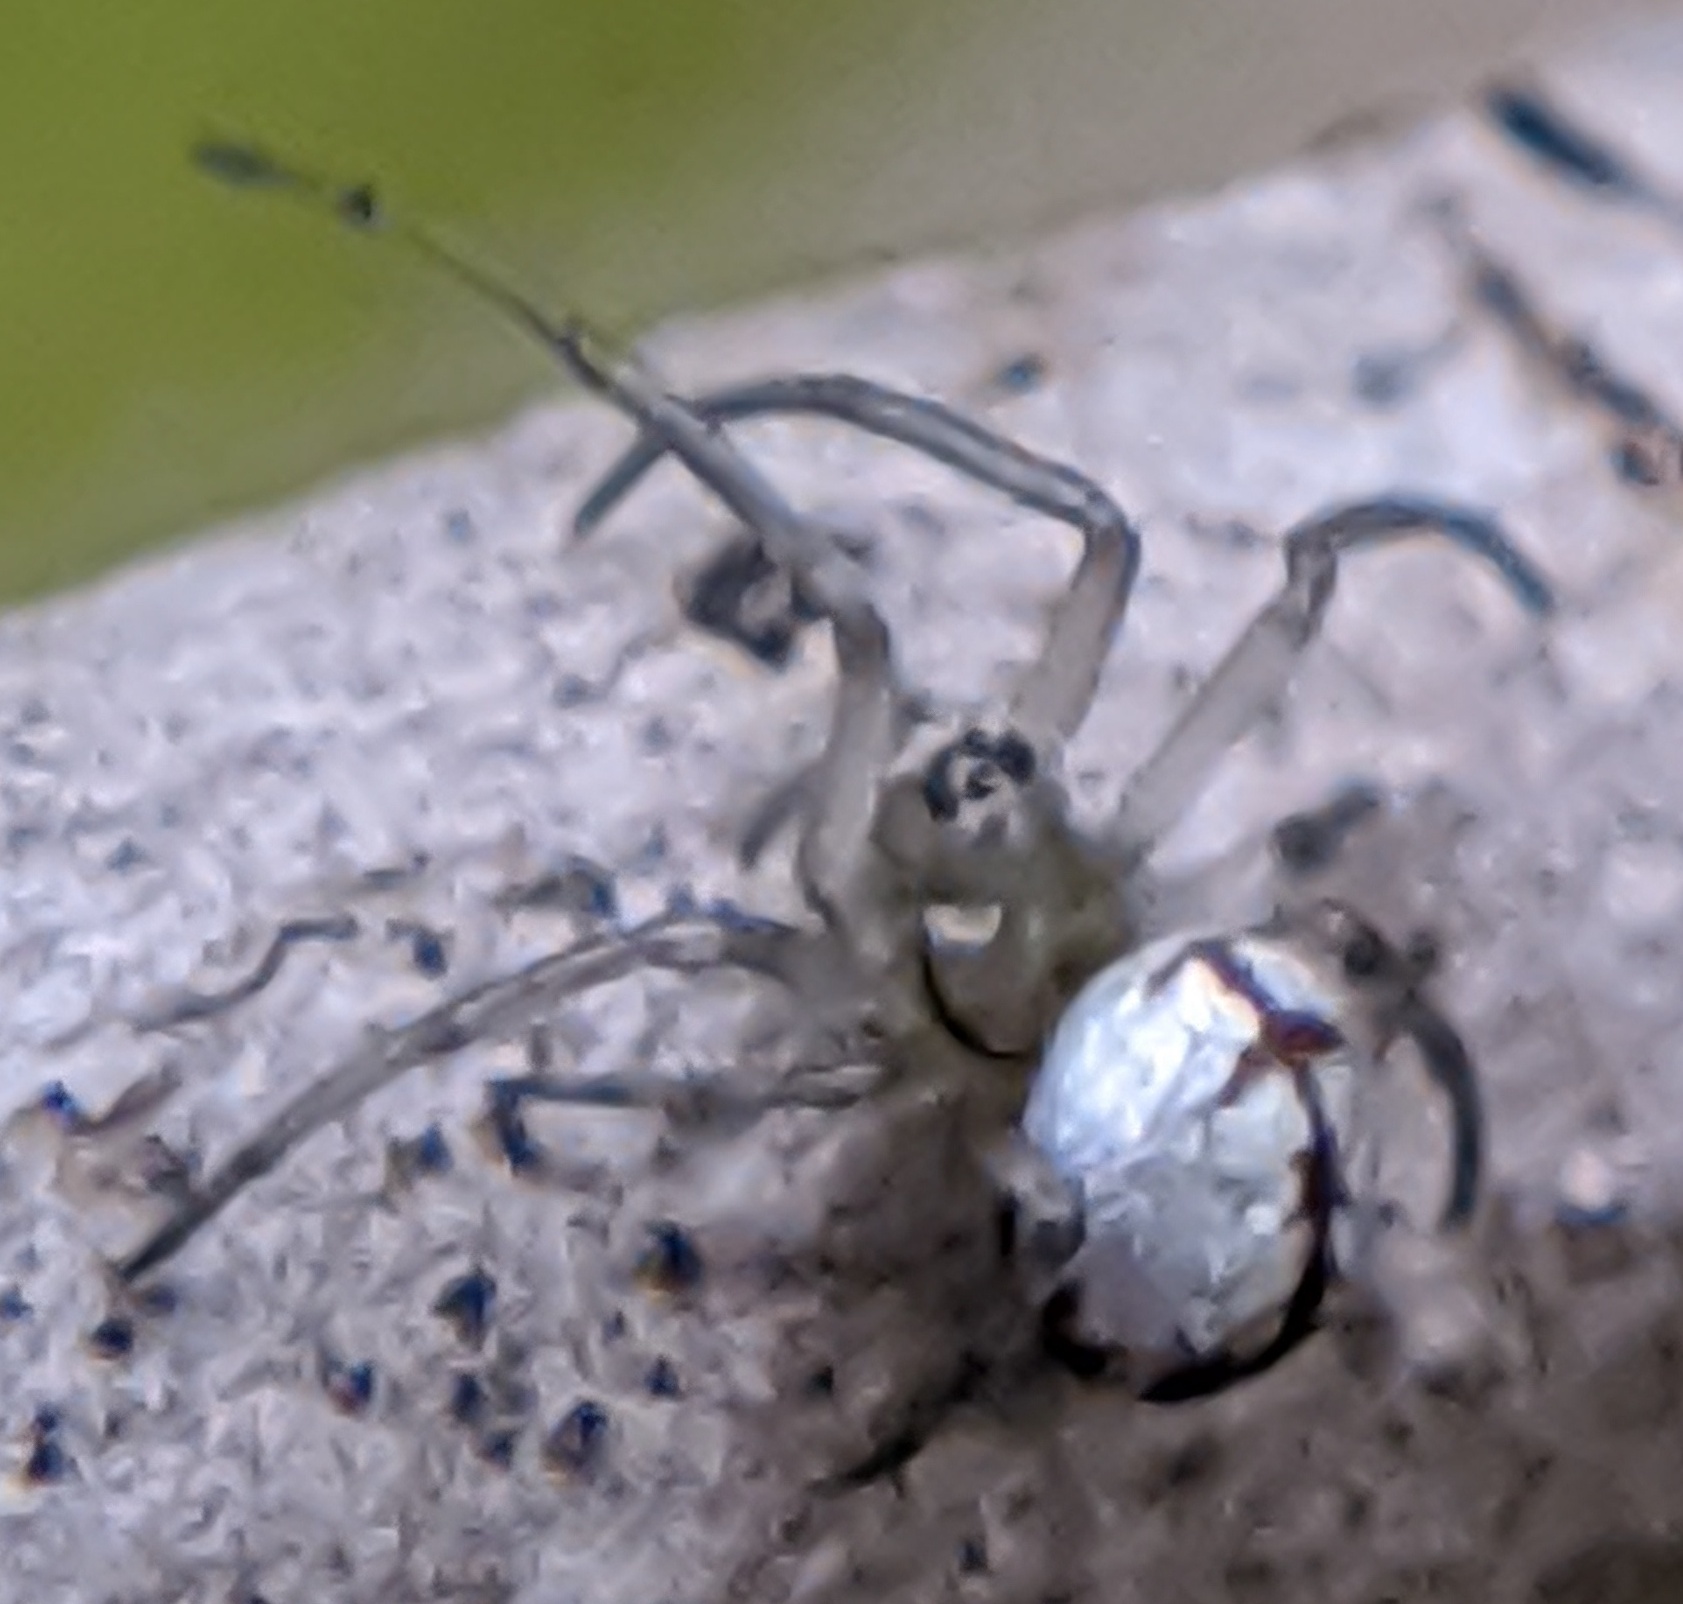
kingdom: Animalia
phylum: Arthropoda
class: Arachnida
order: Araneae
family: Tetragnathidae
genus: Leucauge
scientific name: Leucauge venusta
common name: Longjawed orb weavers
